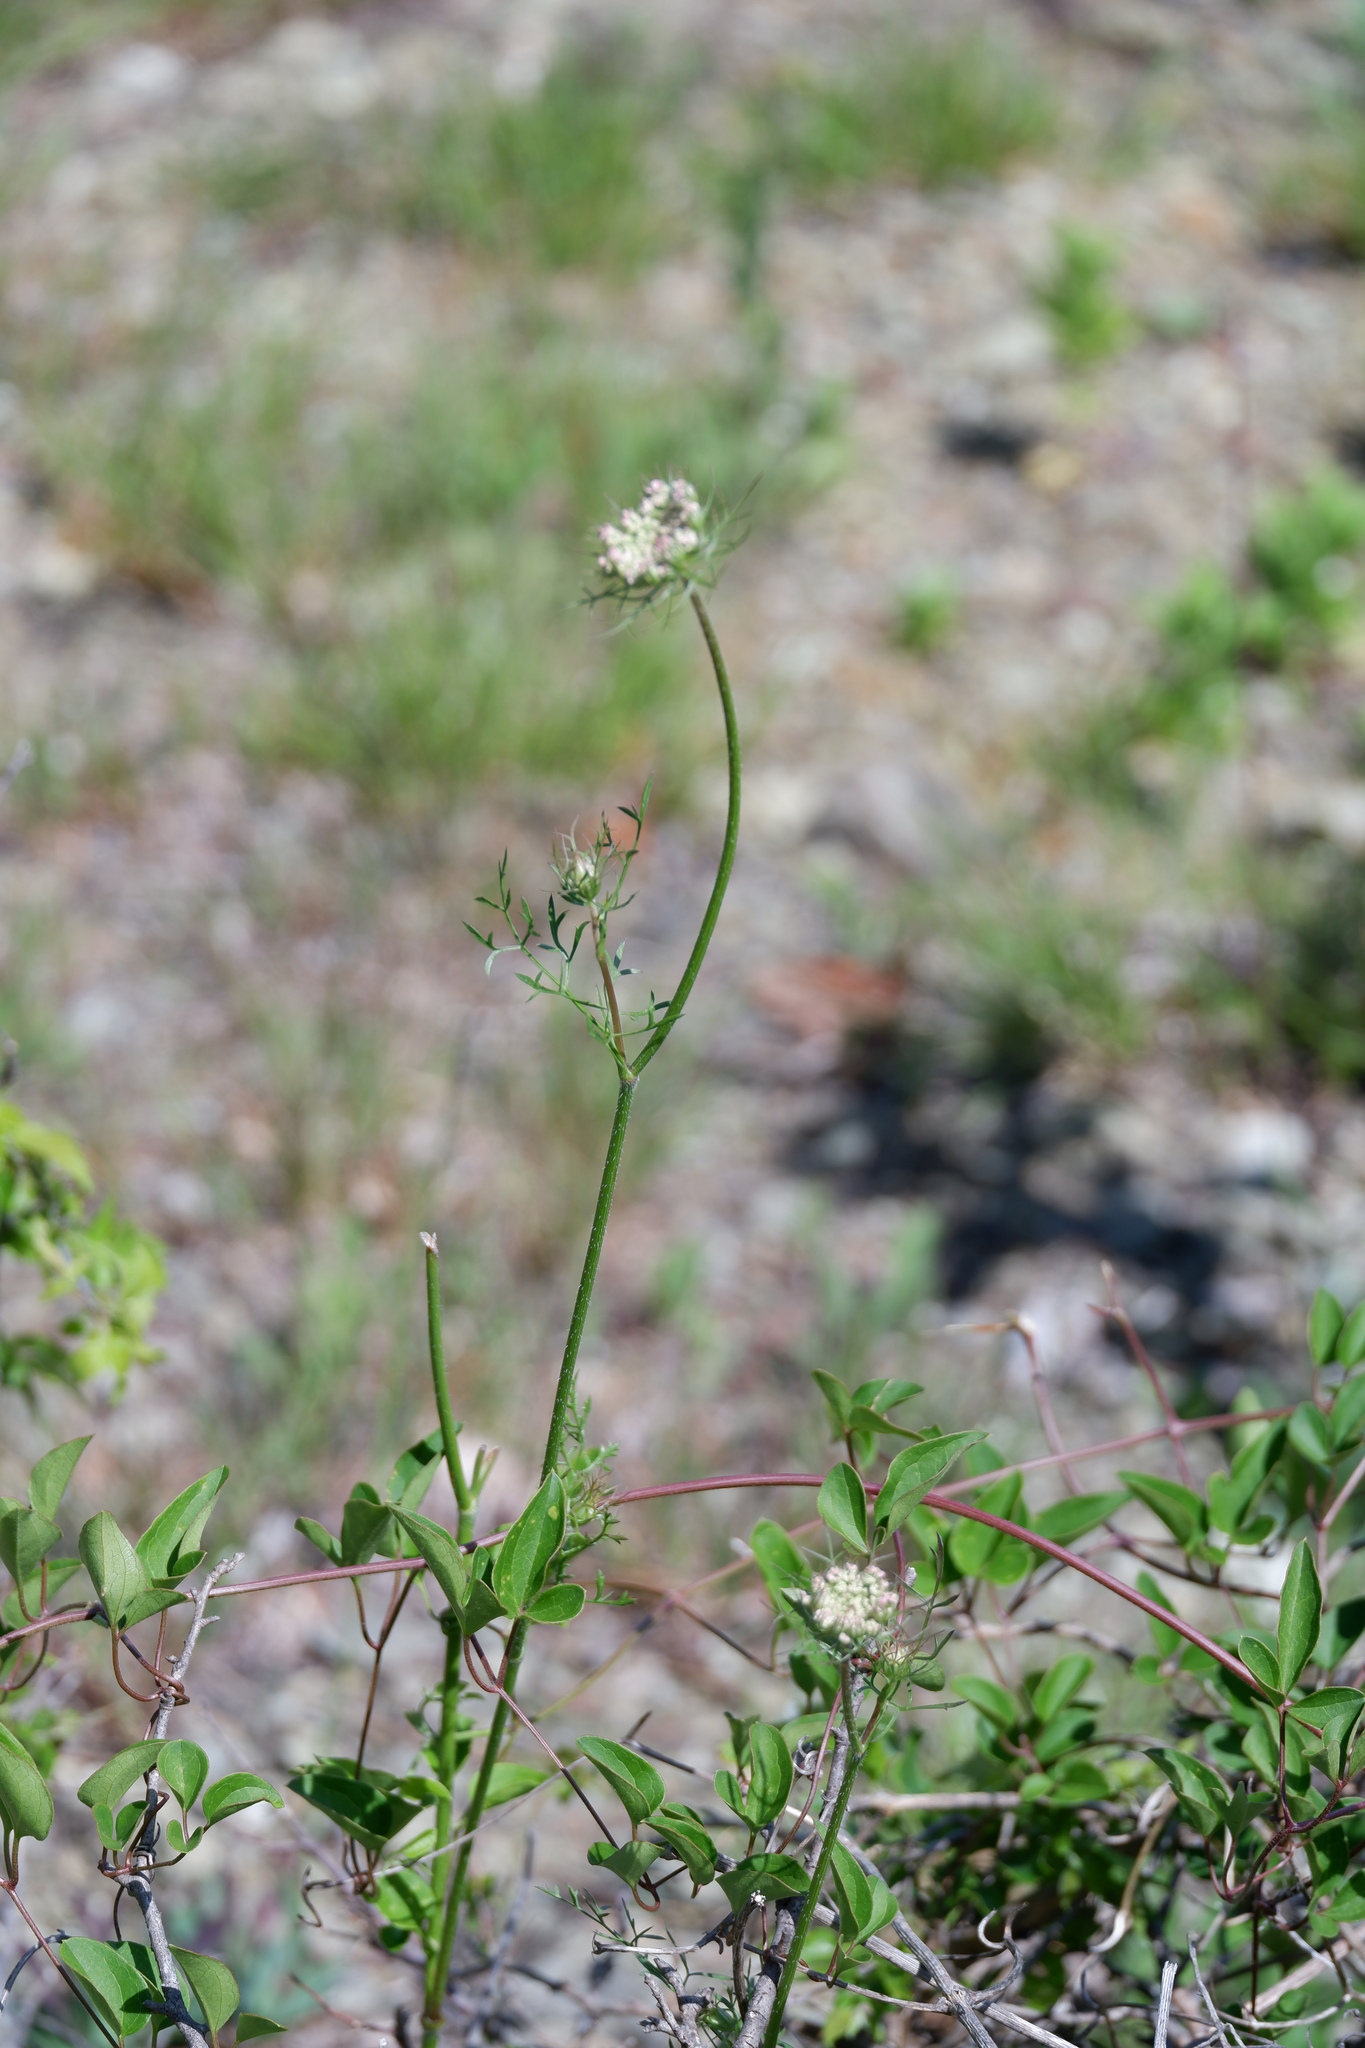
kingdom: Plantae
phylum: Tracheophyta
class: Magnoliopsida
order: Apiales
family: Apiaceae
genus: Daucus
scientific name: Daucus carota
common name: Wild carrot
